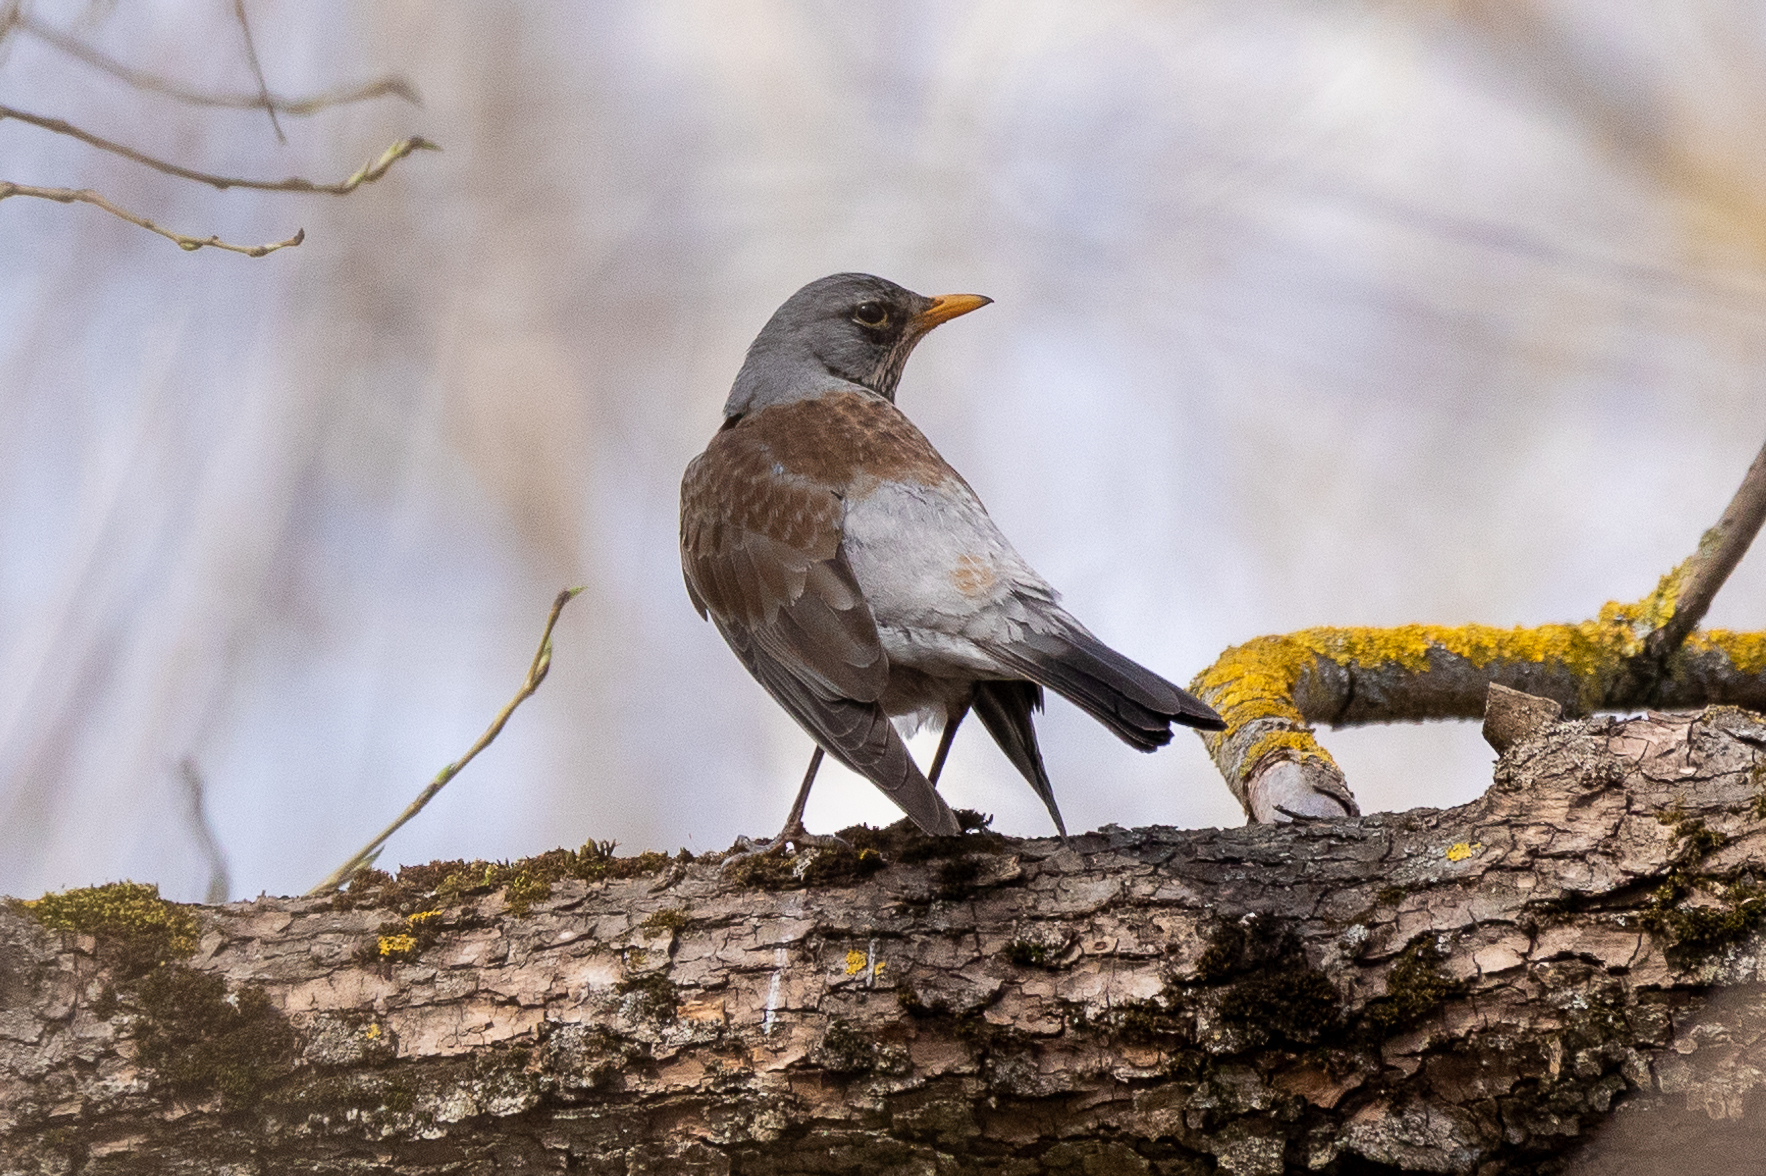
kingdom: Animalia
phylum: Chordata
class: Aves
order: Passeriformes
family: Turdidae
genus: Turdus
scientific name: Turdus pilaris
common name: Fieldfare
